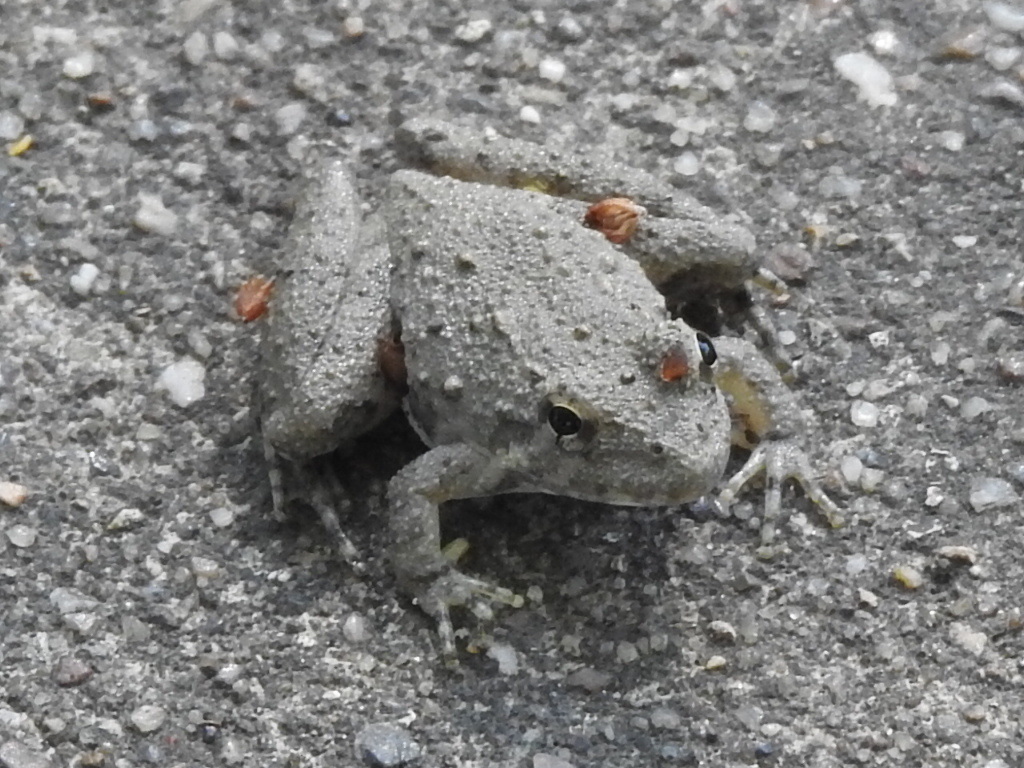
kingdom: Animalia
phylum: Chordata
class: Amphibia
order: Anura
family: Hylidae
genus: Acris
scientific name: Acris blanchardi
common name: Blanchard's cricket frog
